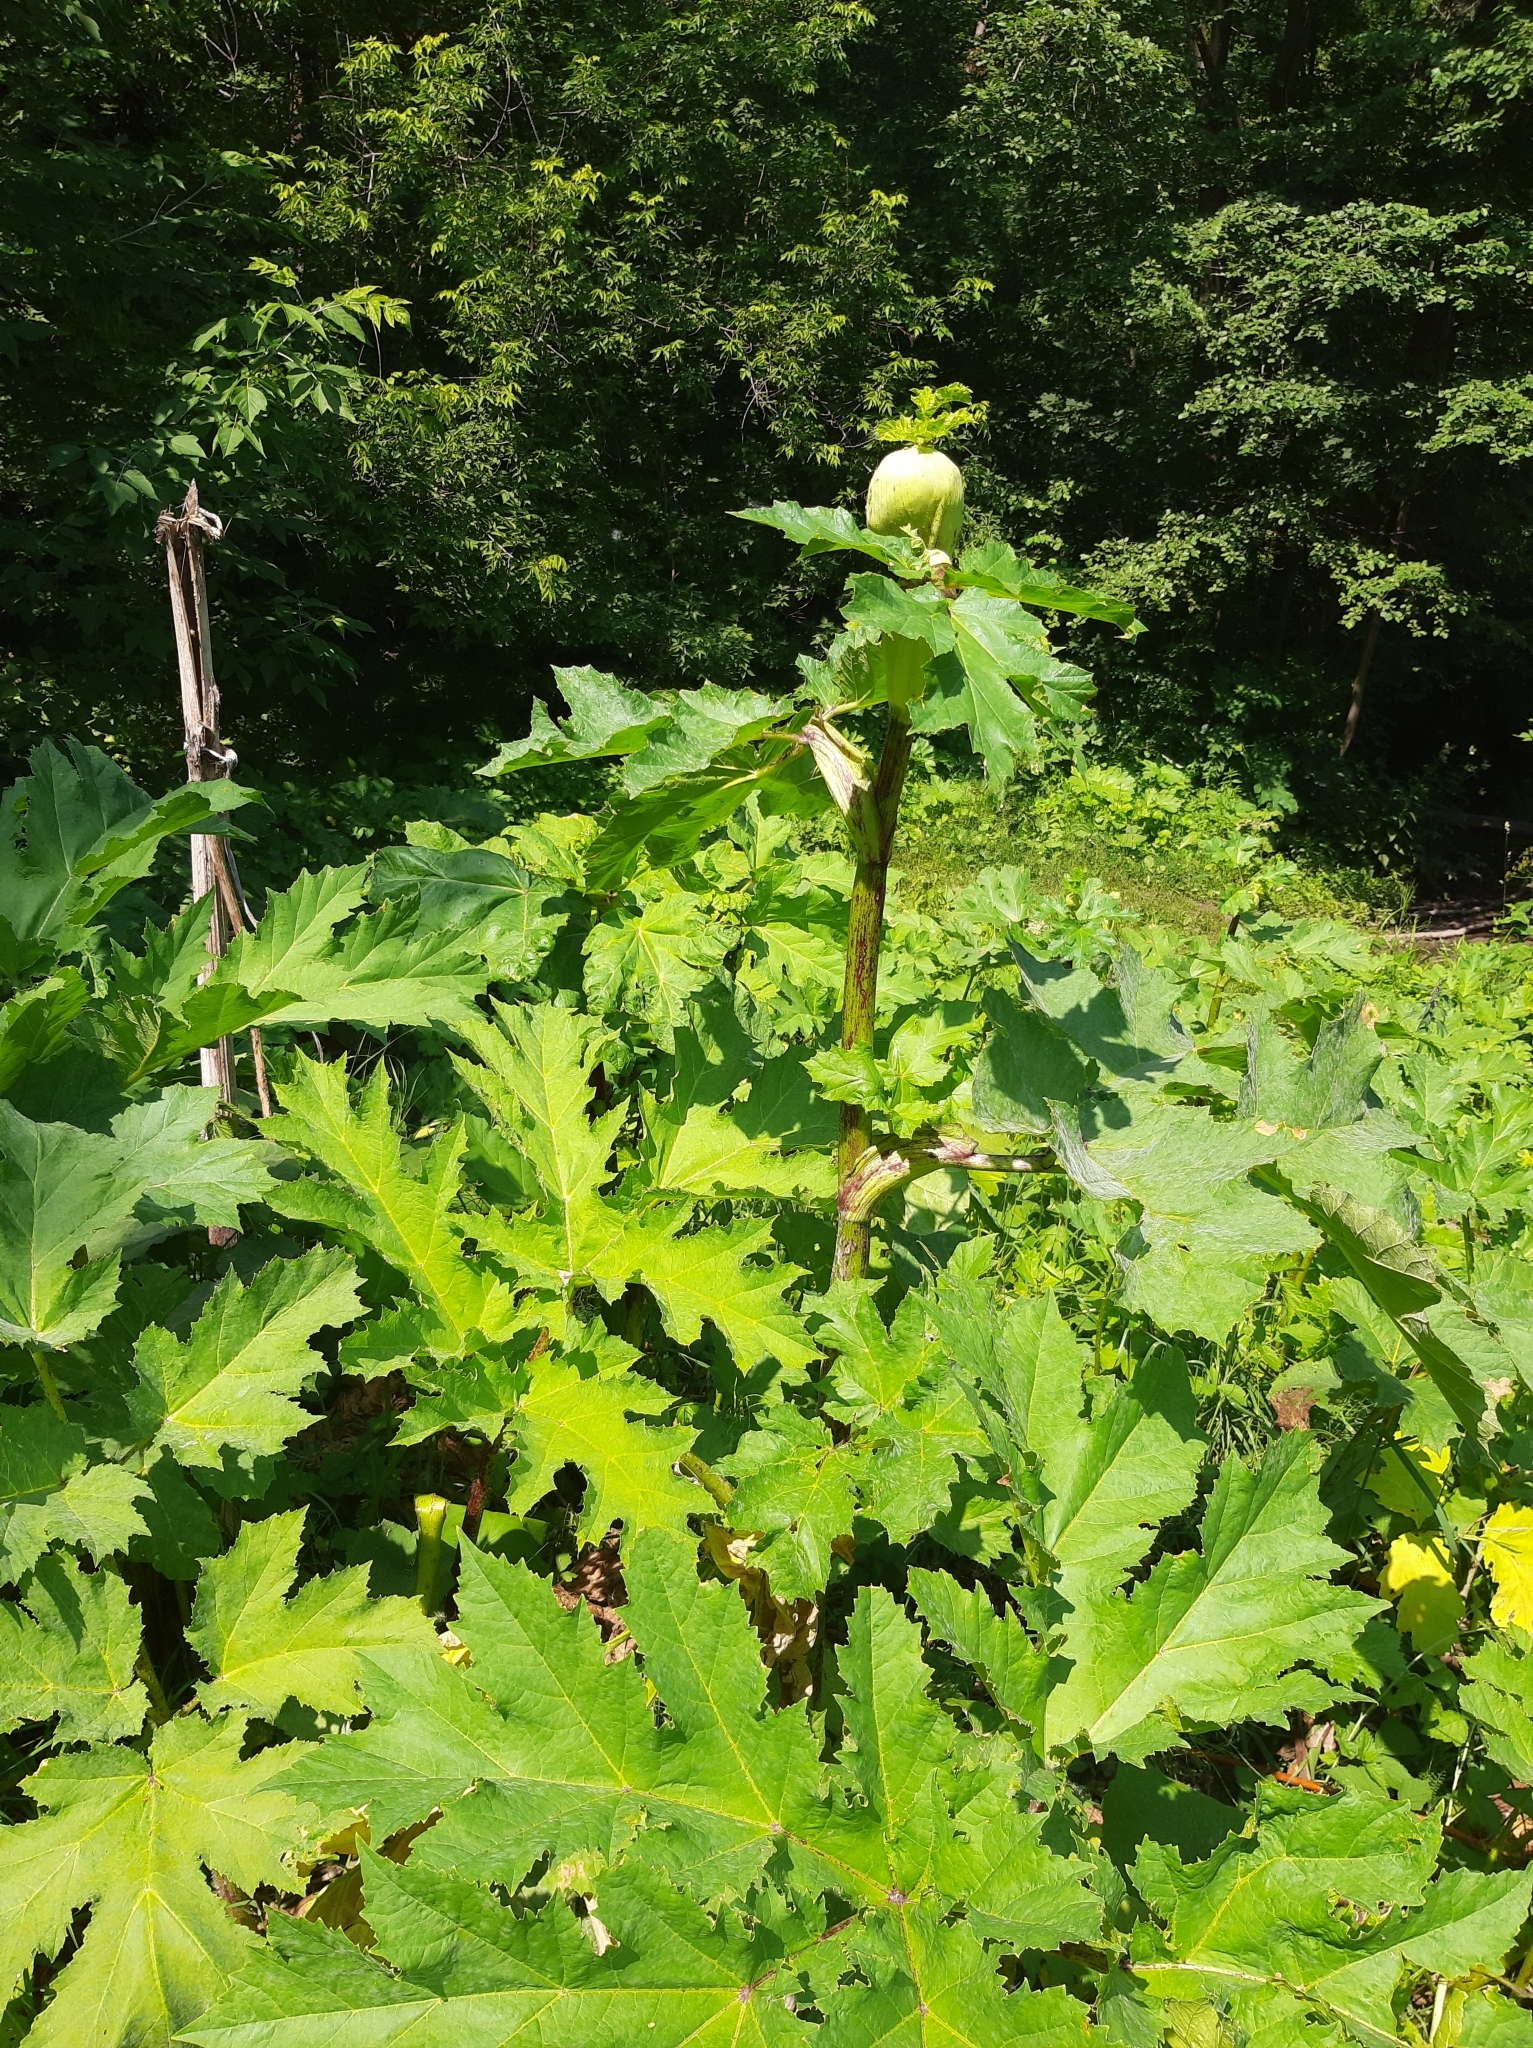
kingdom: Plantae
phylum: Tracheophyta
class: Magnoliopsida
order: Apiales
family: Apiaceae
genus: Heracleum
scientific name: Heracleum sosnowskyi
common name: Sosnowsky's hogweed
